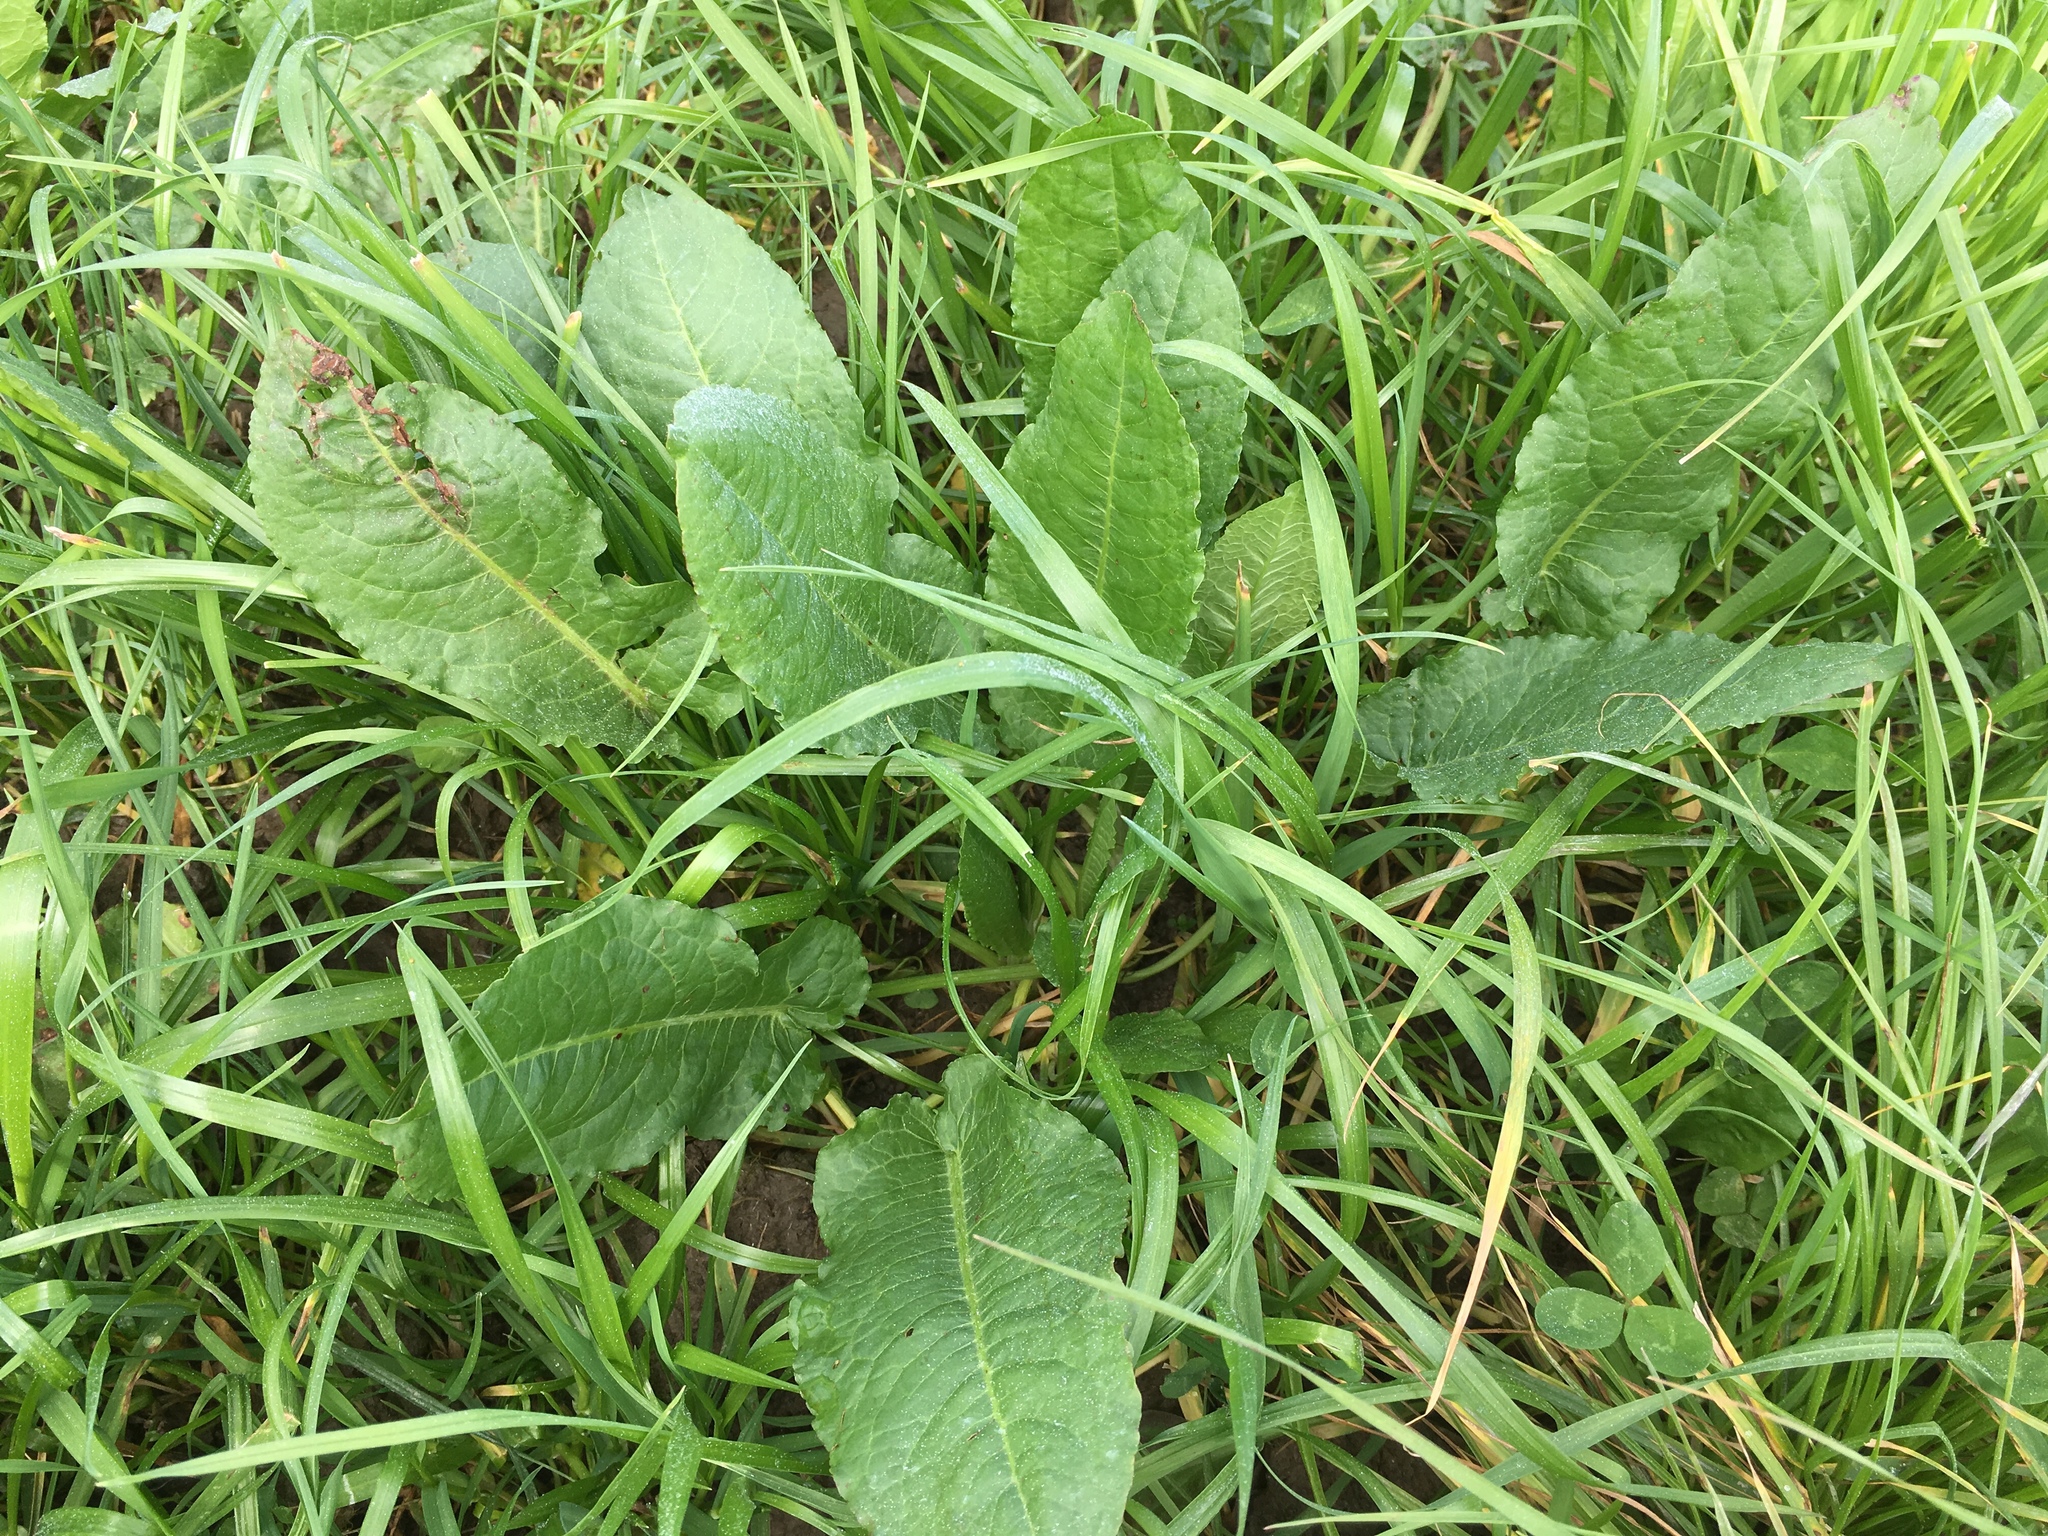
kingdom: Plantae
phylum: Tracheophyta
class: Magnoliopsida
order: Caryophyllales
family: Polygonaceae
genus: Rumex
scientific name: Rumex obtusifolius
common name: Bitter dock
